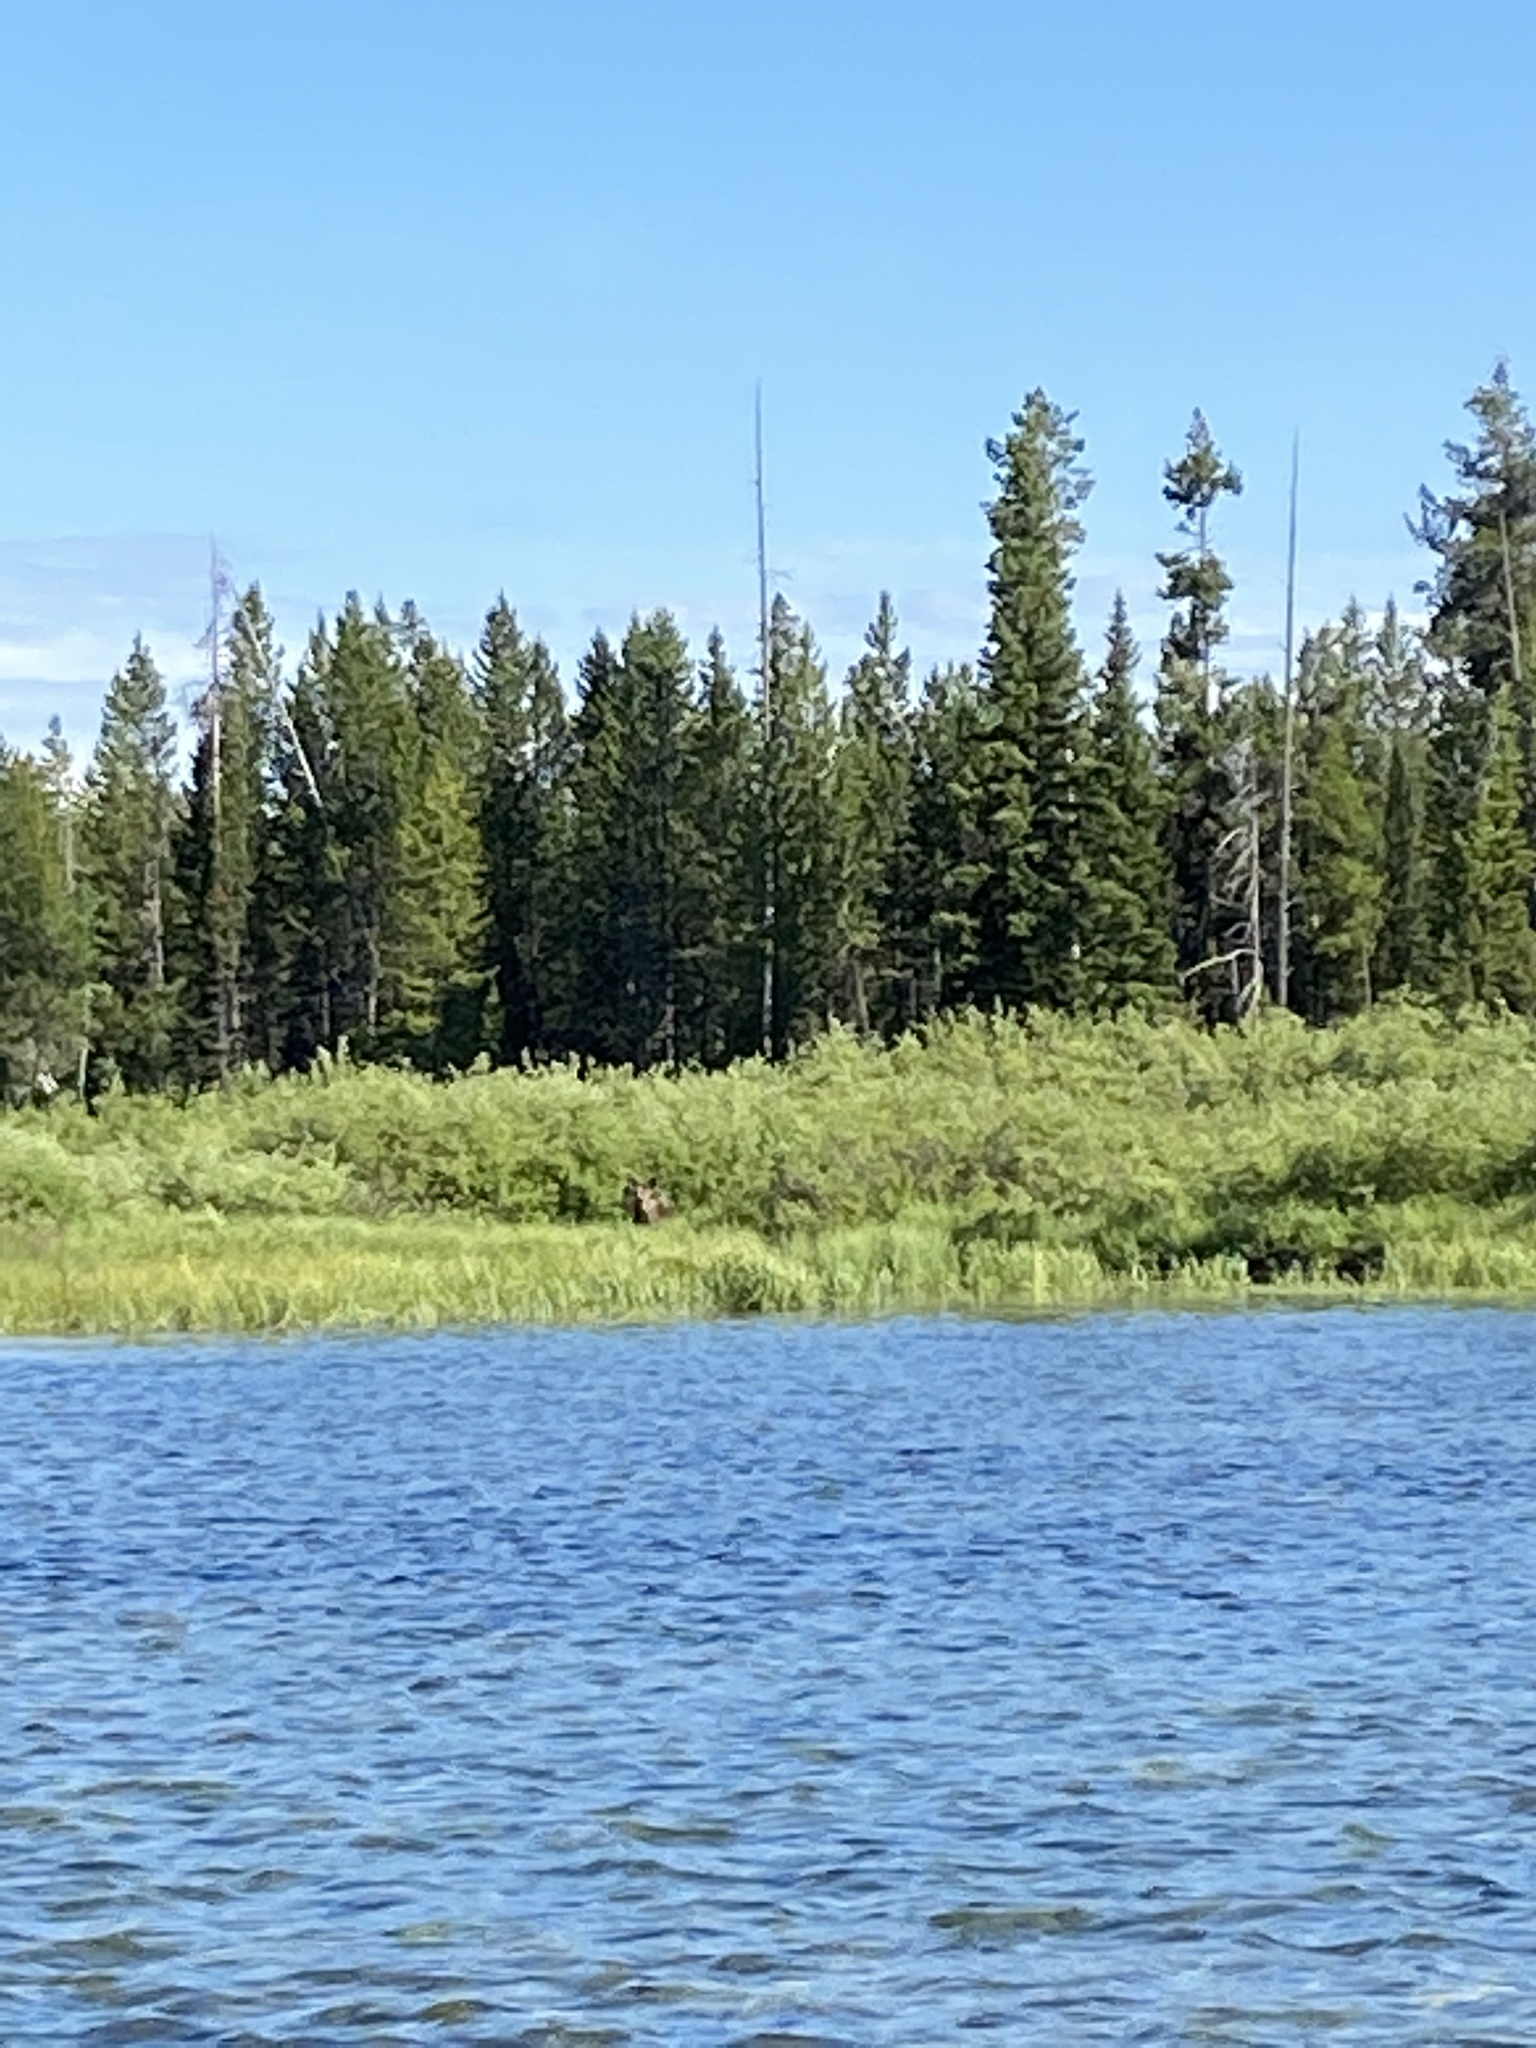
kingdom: Animalia
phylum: Chordata
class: Mammalia
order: Artiodactyla
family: Cervidae
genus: Alces
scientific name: Alces alces
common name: Moose
